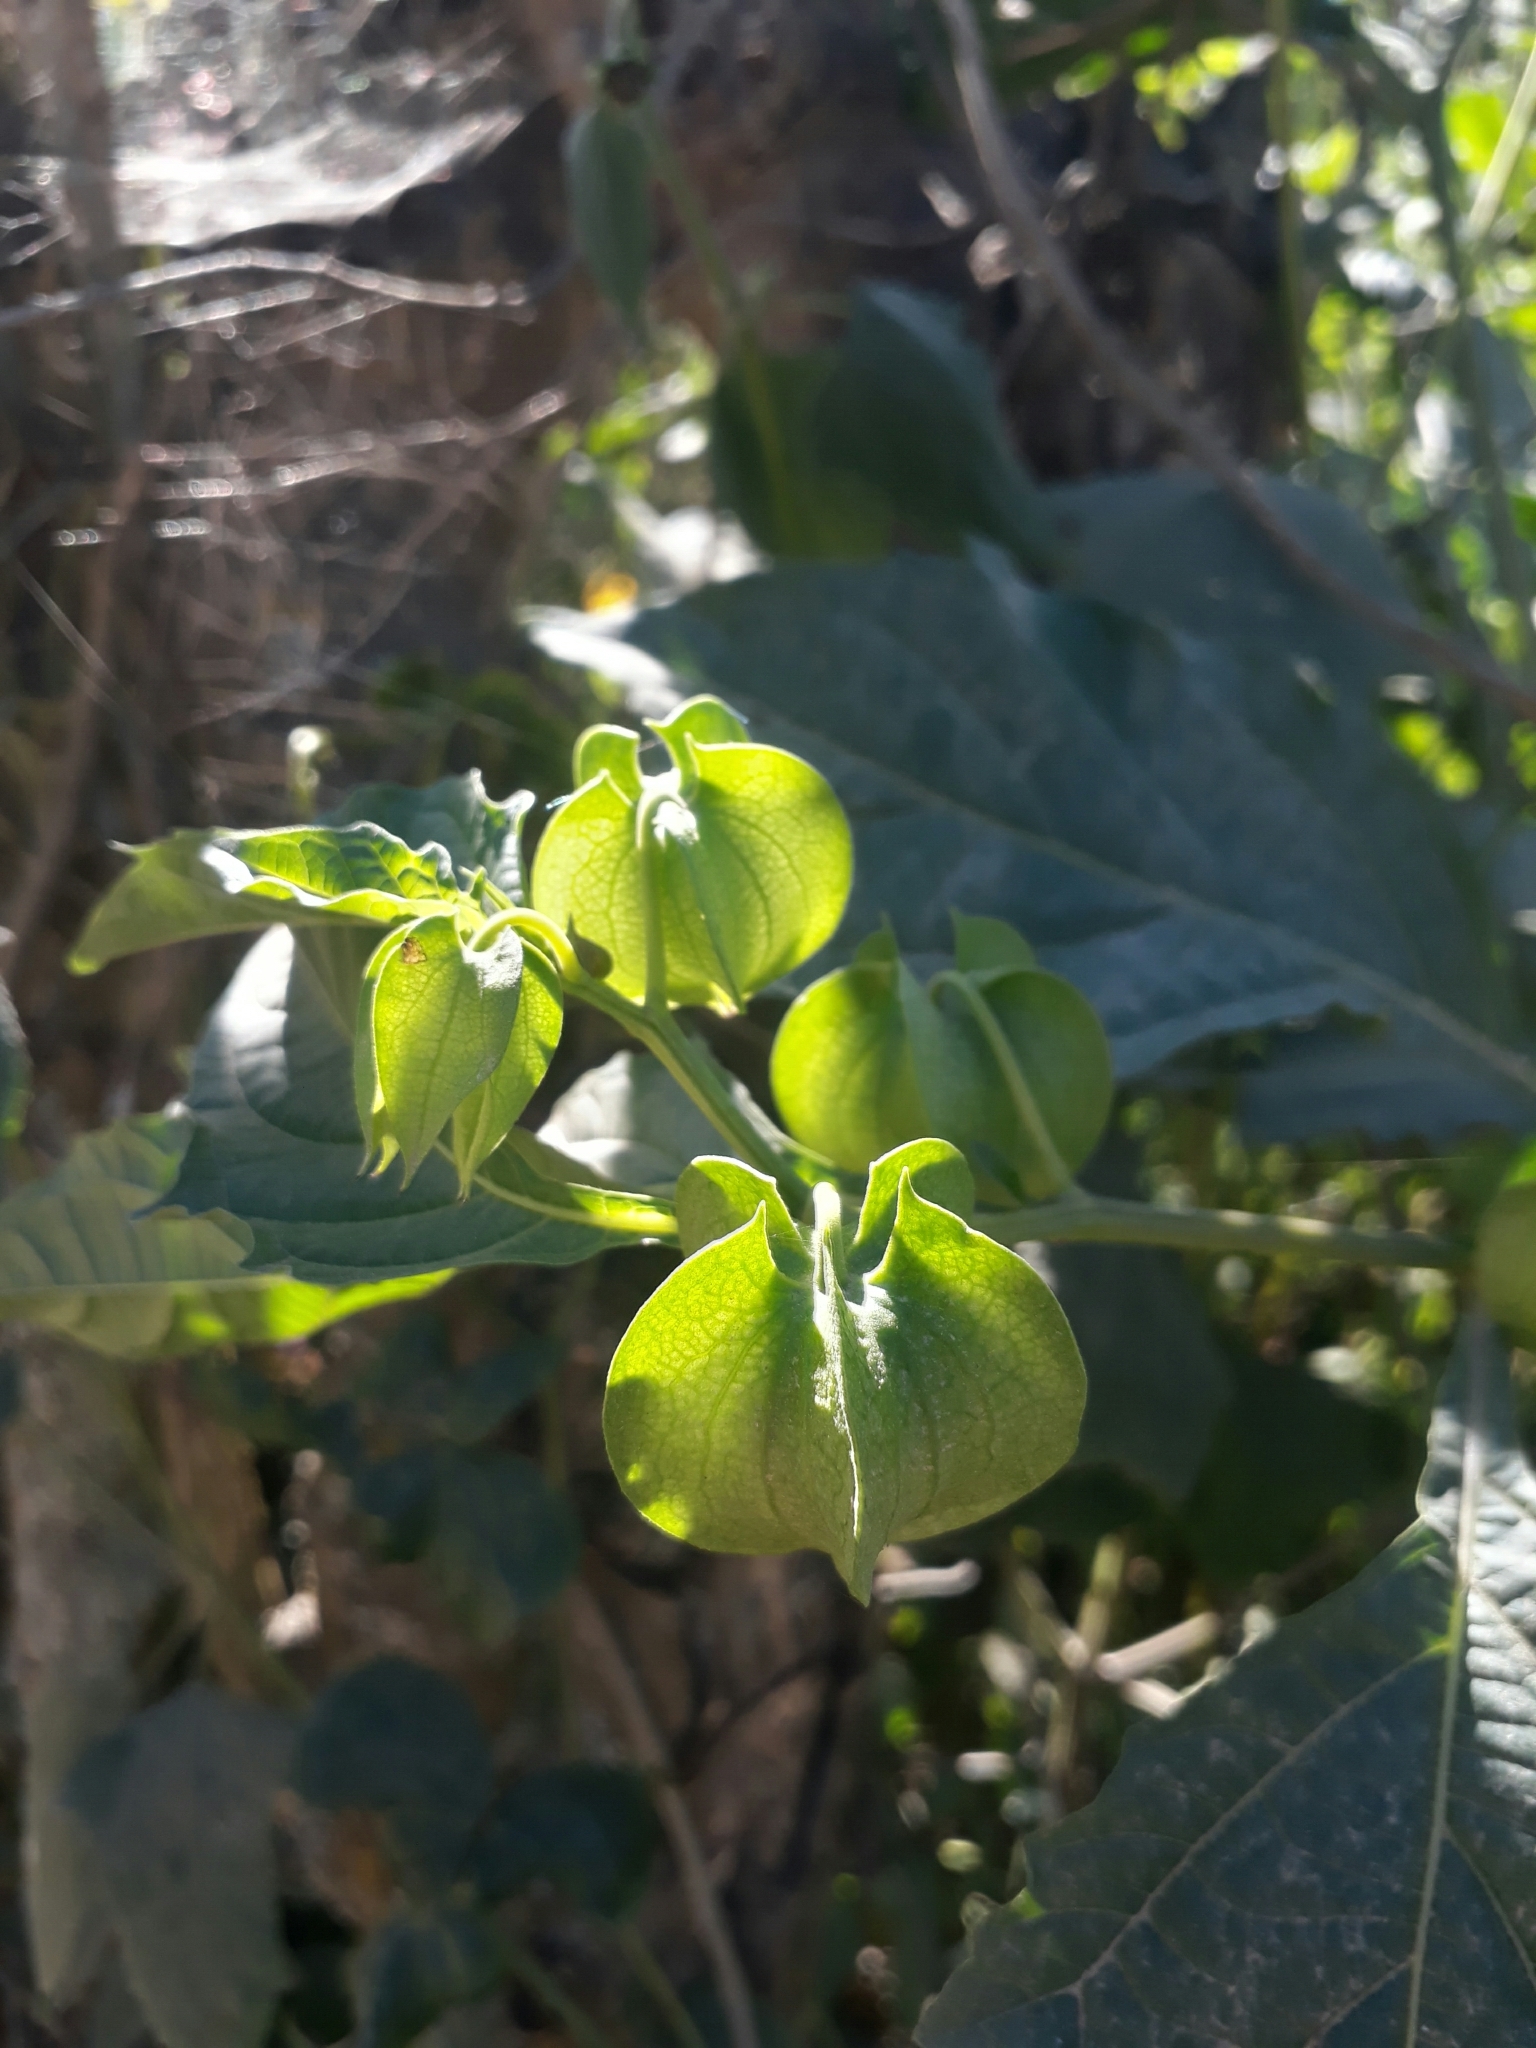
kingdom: Plantae
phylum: Tracheophyta
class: Magnoliopsida
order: Solanales
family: Solanaceae
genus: Nicandra
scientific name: Nicandra physalodes
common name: Apple-of-peru
